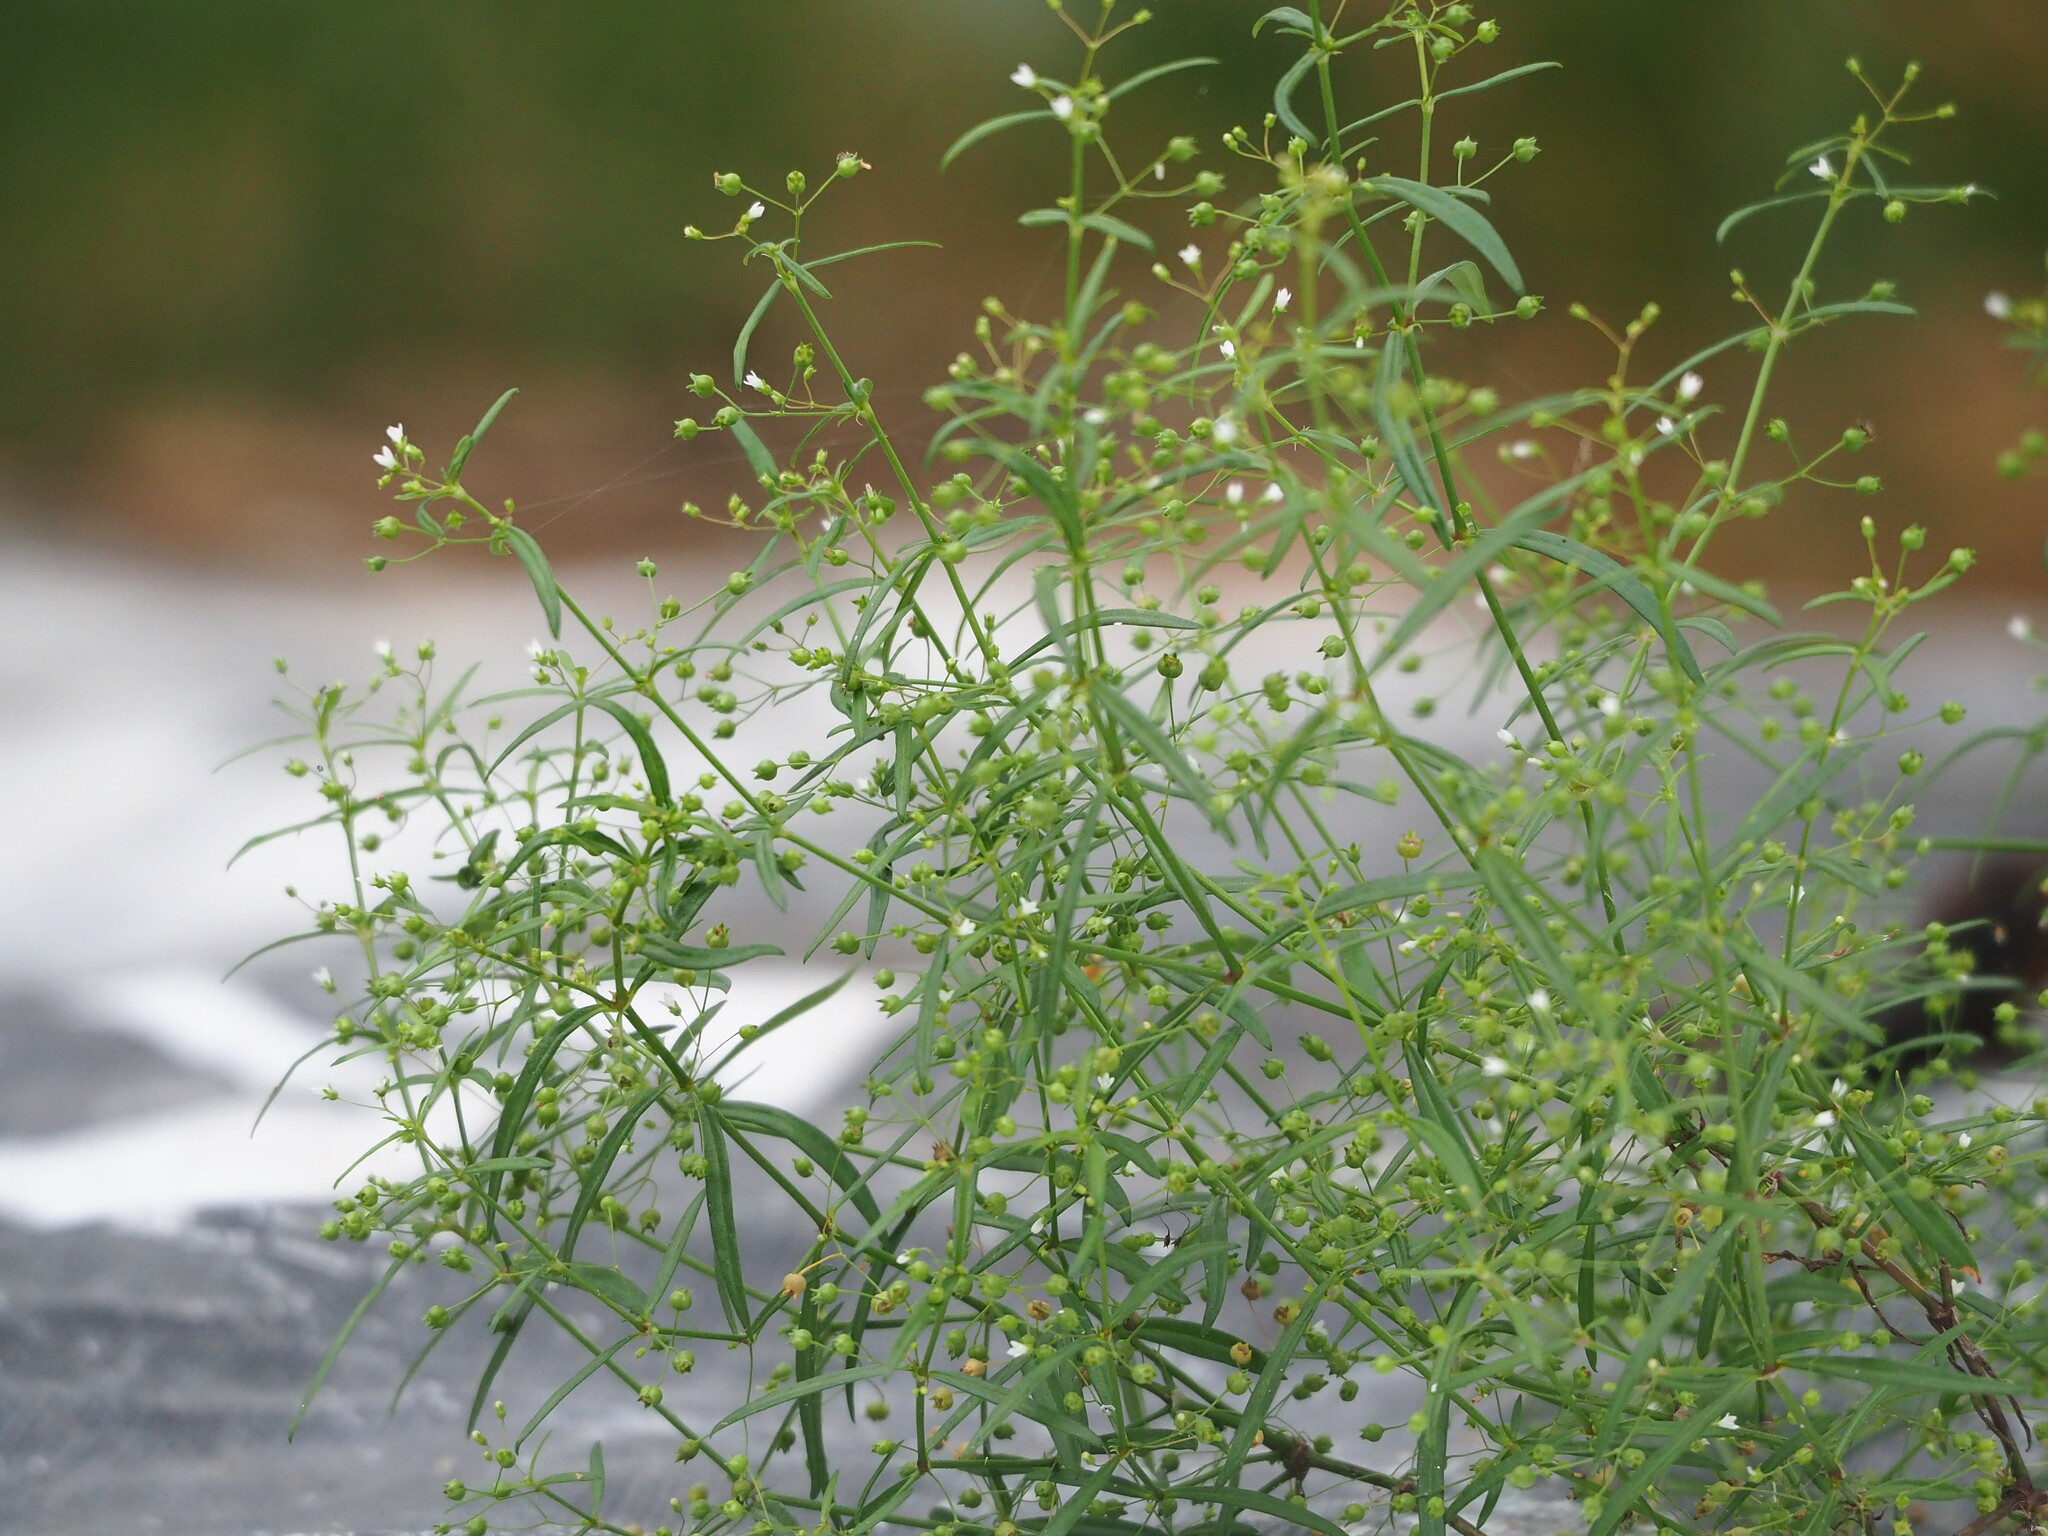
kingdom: Plantae
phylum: Tracheophyta
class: Magnoliopsida
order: Gentianales
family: Rubiaceae
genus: Oldenlandia
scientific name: Oldenlandia corymbosa
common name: Flat-top mille graines
